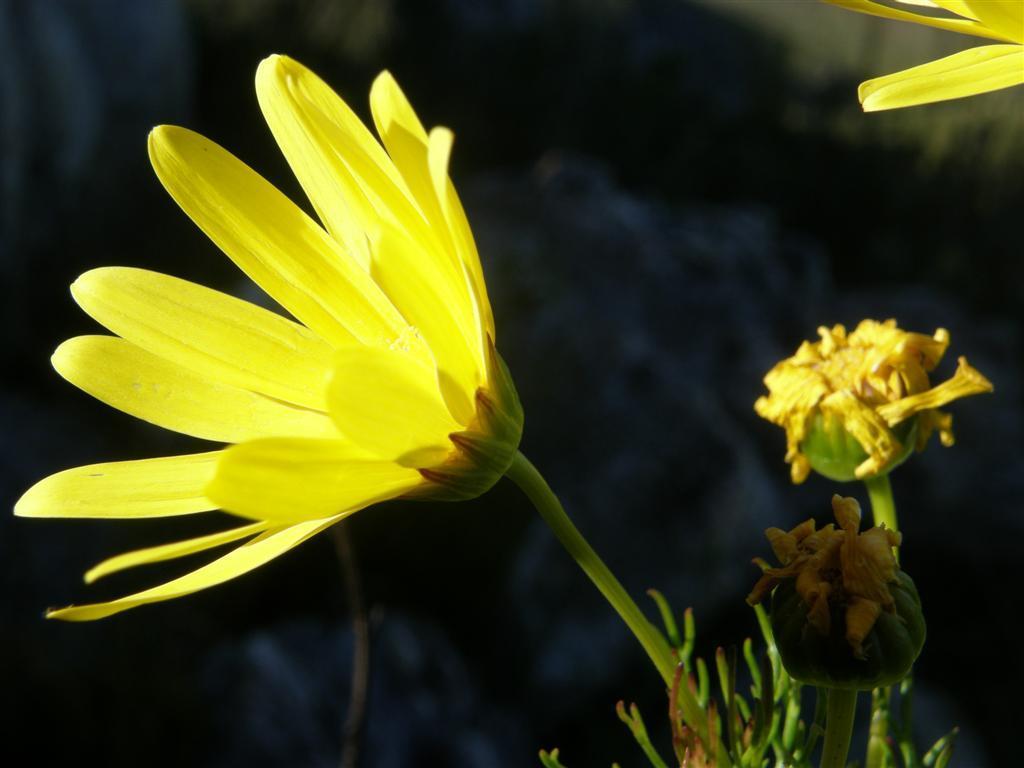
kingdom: Plantae
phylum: Tracheophyta
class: Magnoliopsida
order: Asterales
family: Asteraceae
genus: Euryops
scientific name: Euryops abrotanifolius
